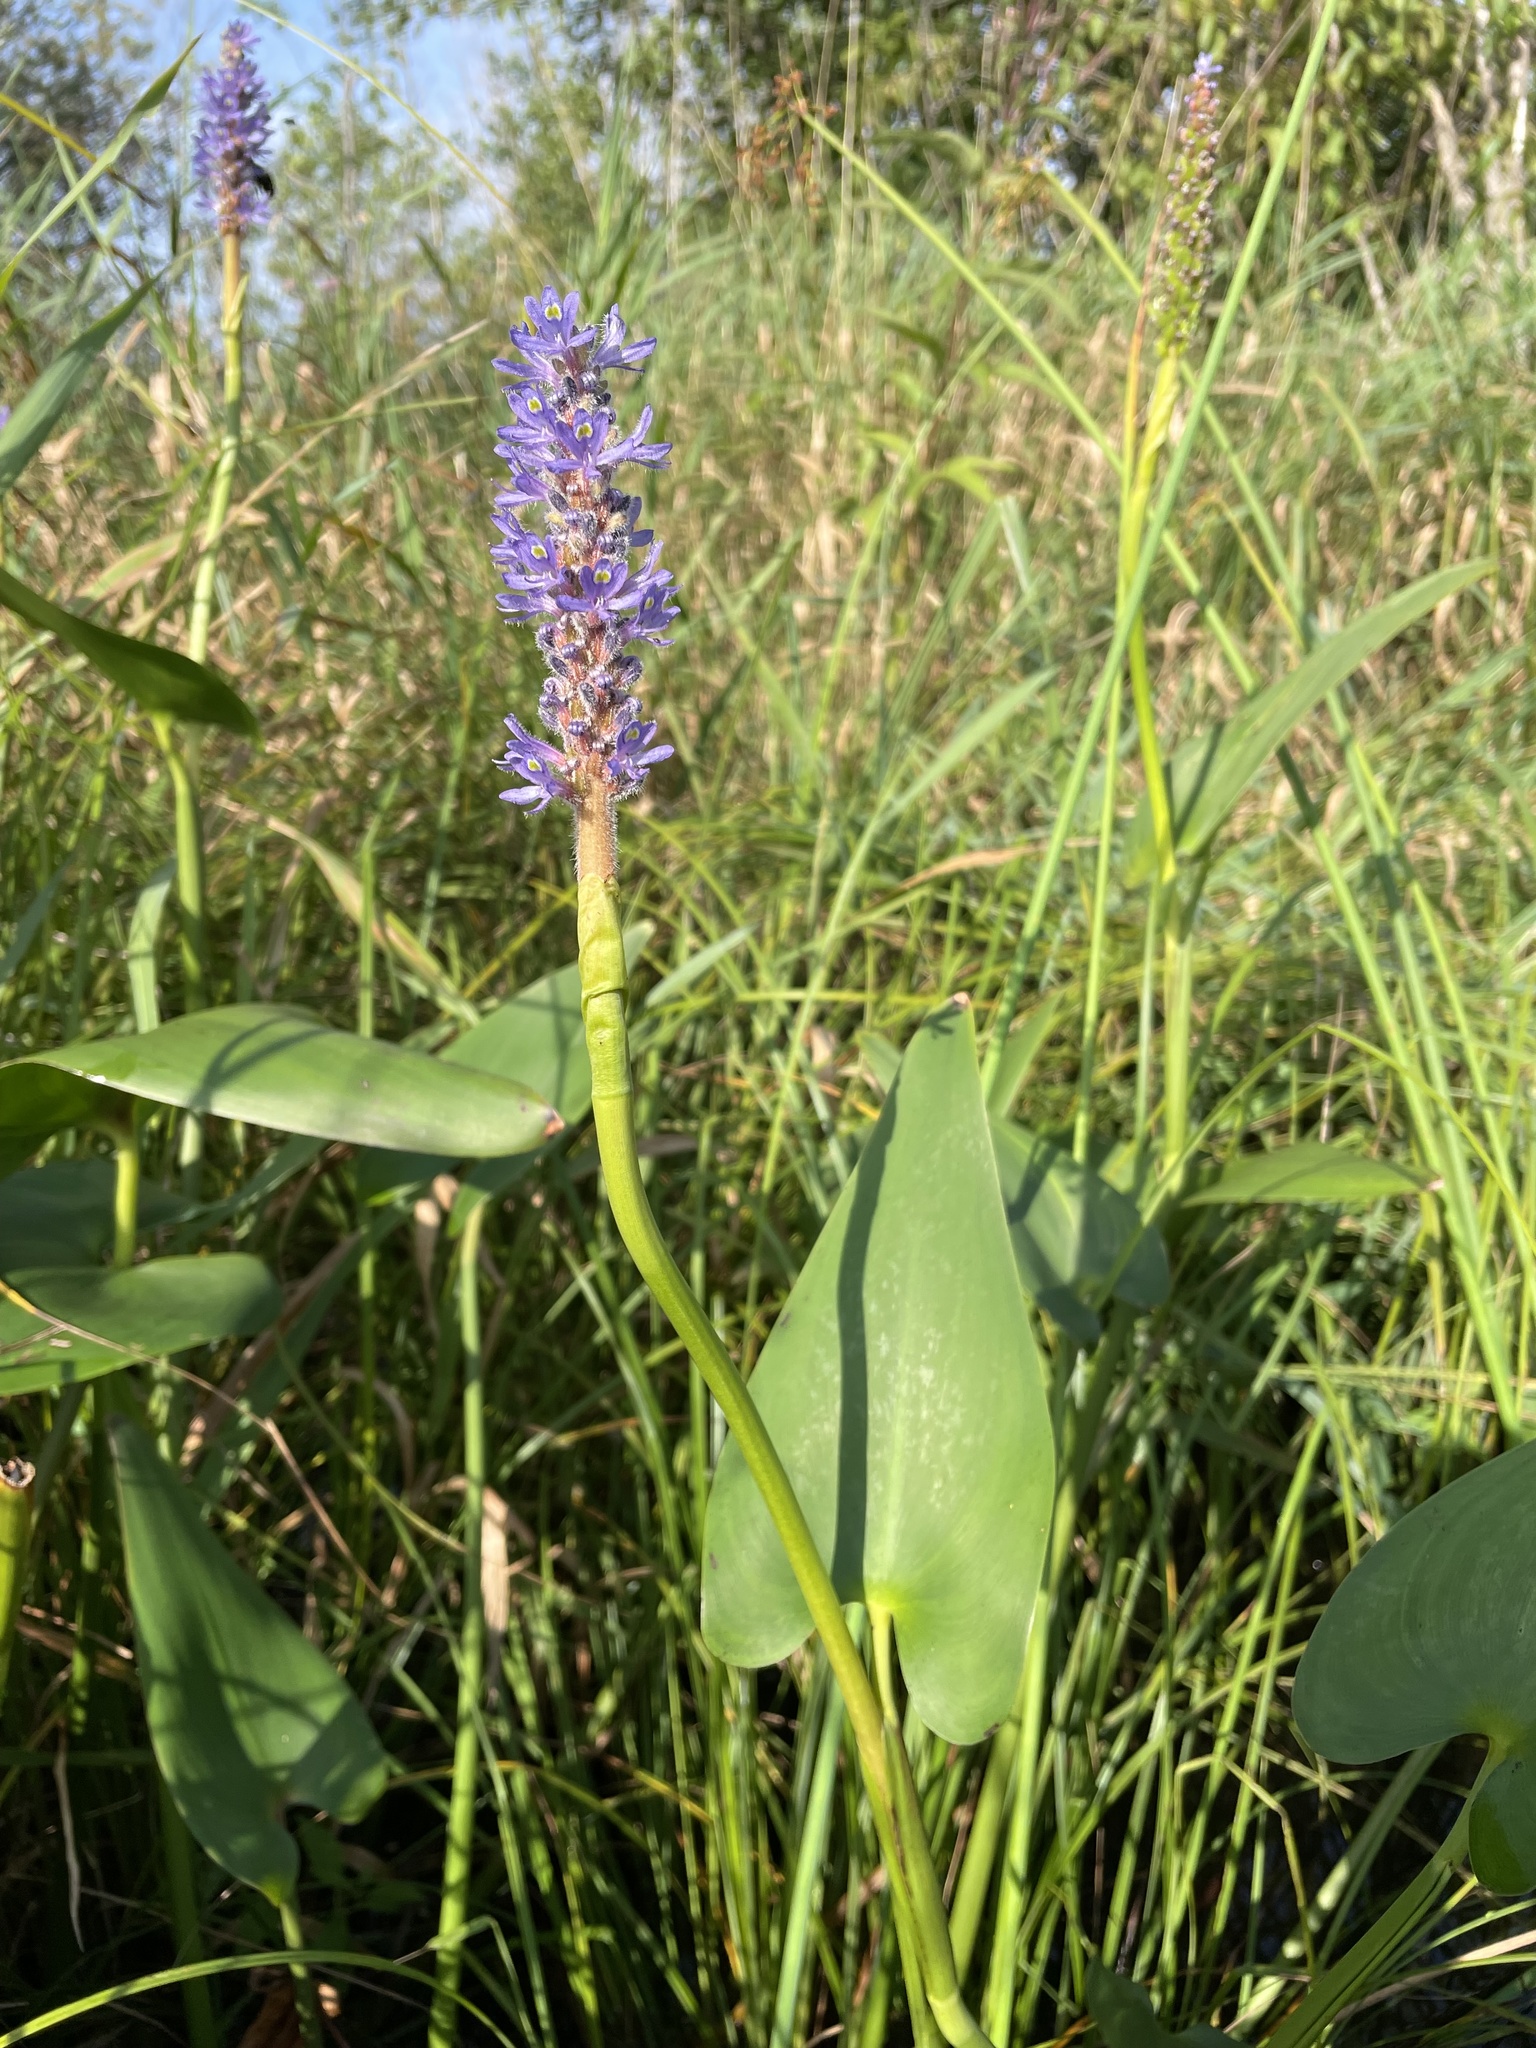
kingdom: Plantae
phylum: Tracheophyta
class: Liliopsida
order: Commelinales
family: Pontederiaceae
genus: Pontederia
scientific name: Pontederia cordata
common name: Pickerelweed
